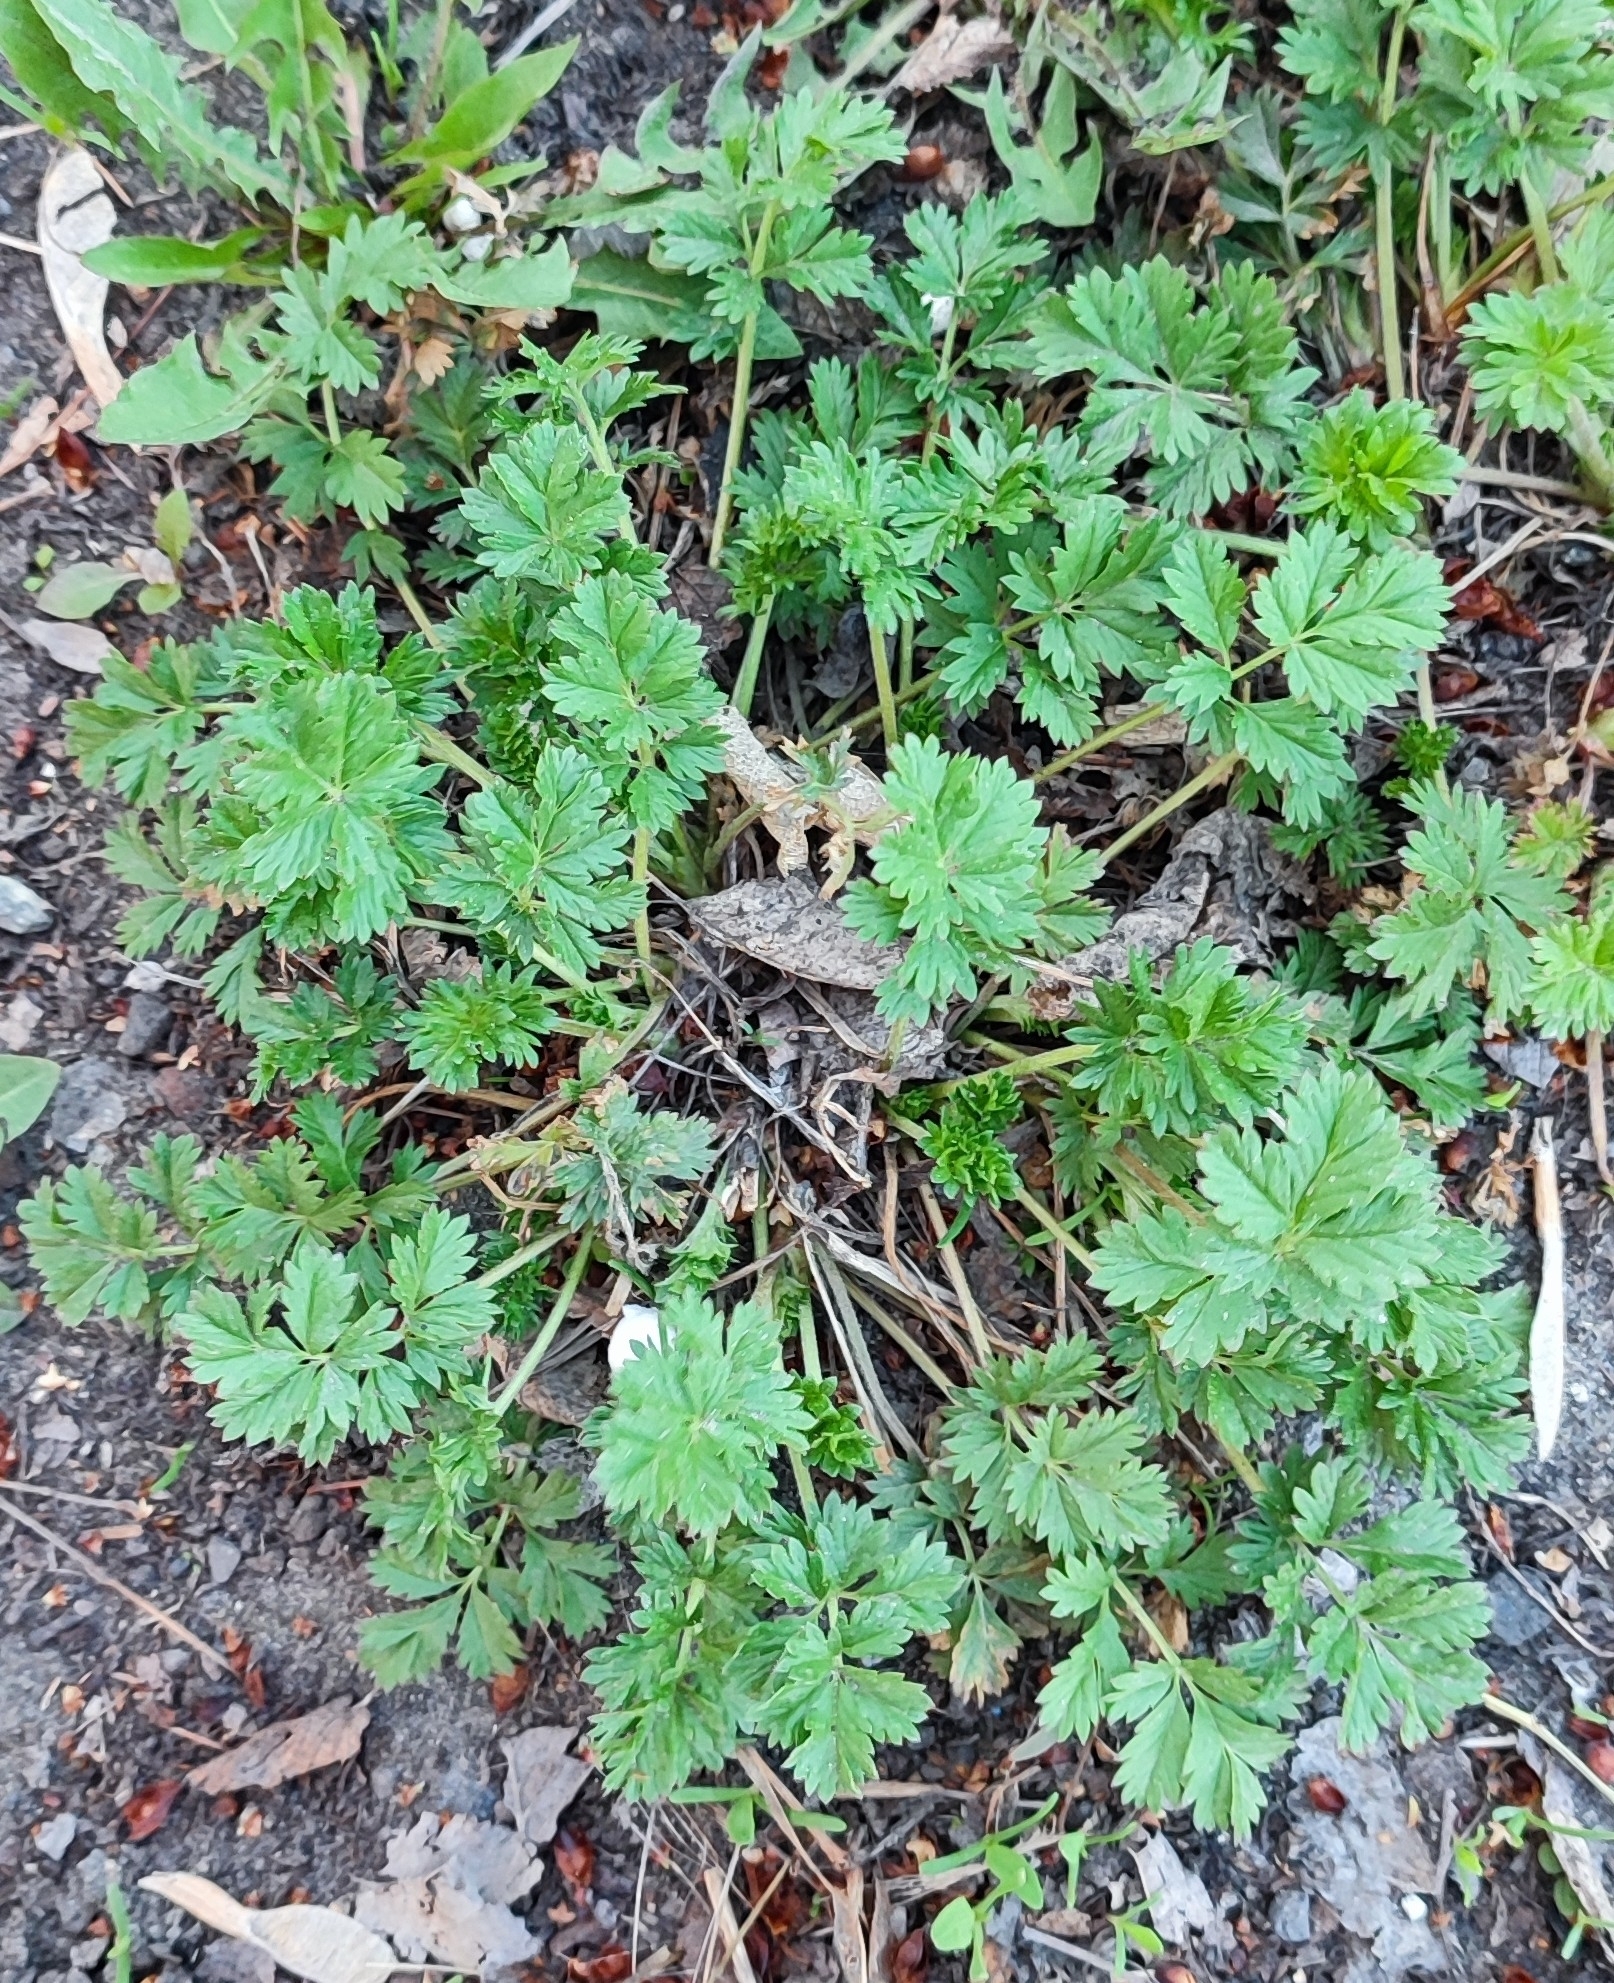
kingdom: Plantae
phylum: Tracheophyta
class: Magnoliopsida
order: Rosales
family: Rosaceae
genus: Potentilla
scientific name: Potentilla tobolensis
